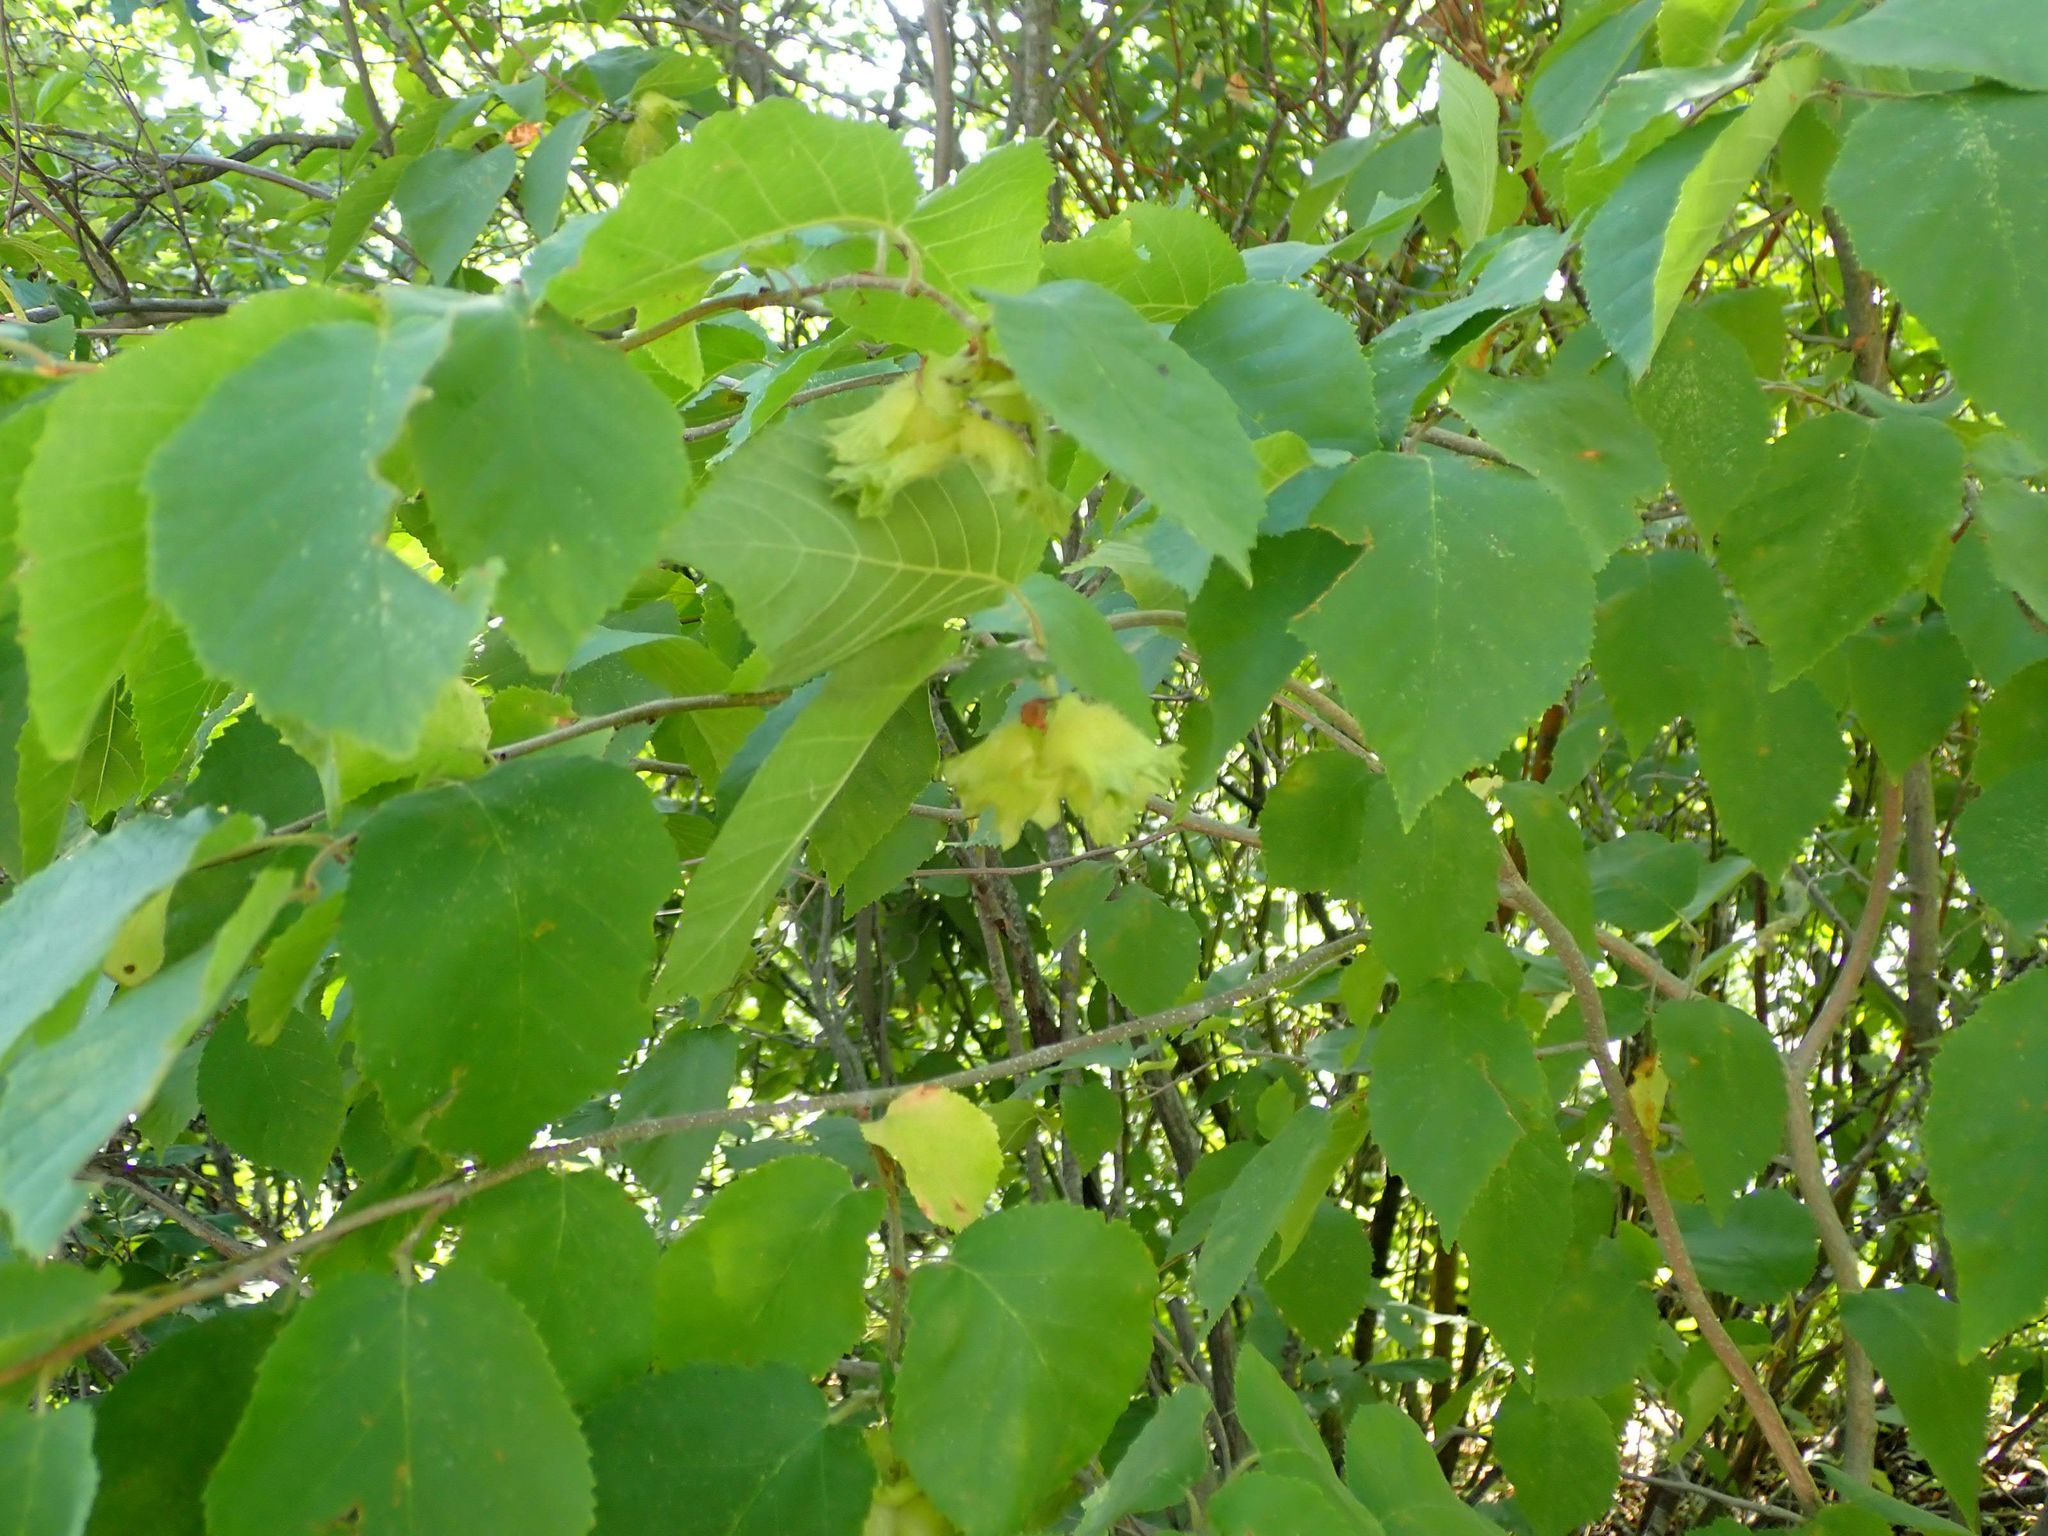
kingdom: Plantae
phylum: Tracheophyta
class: Magnoliopsida
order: Fagales
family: Betulaceae
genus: Corylus
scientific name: Corylus americana
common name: American hazel
